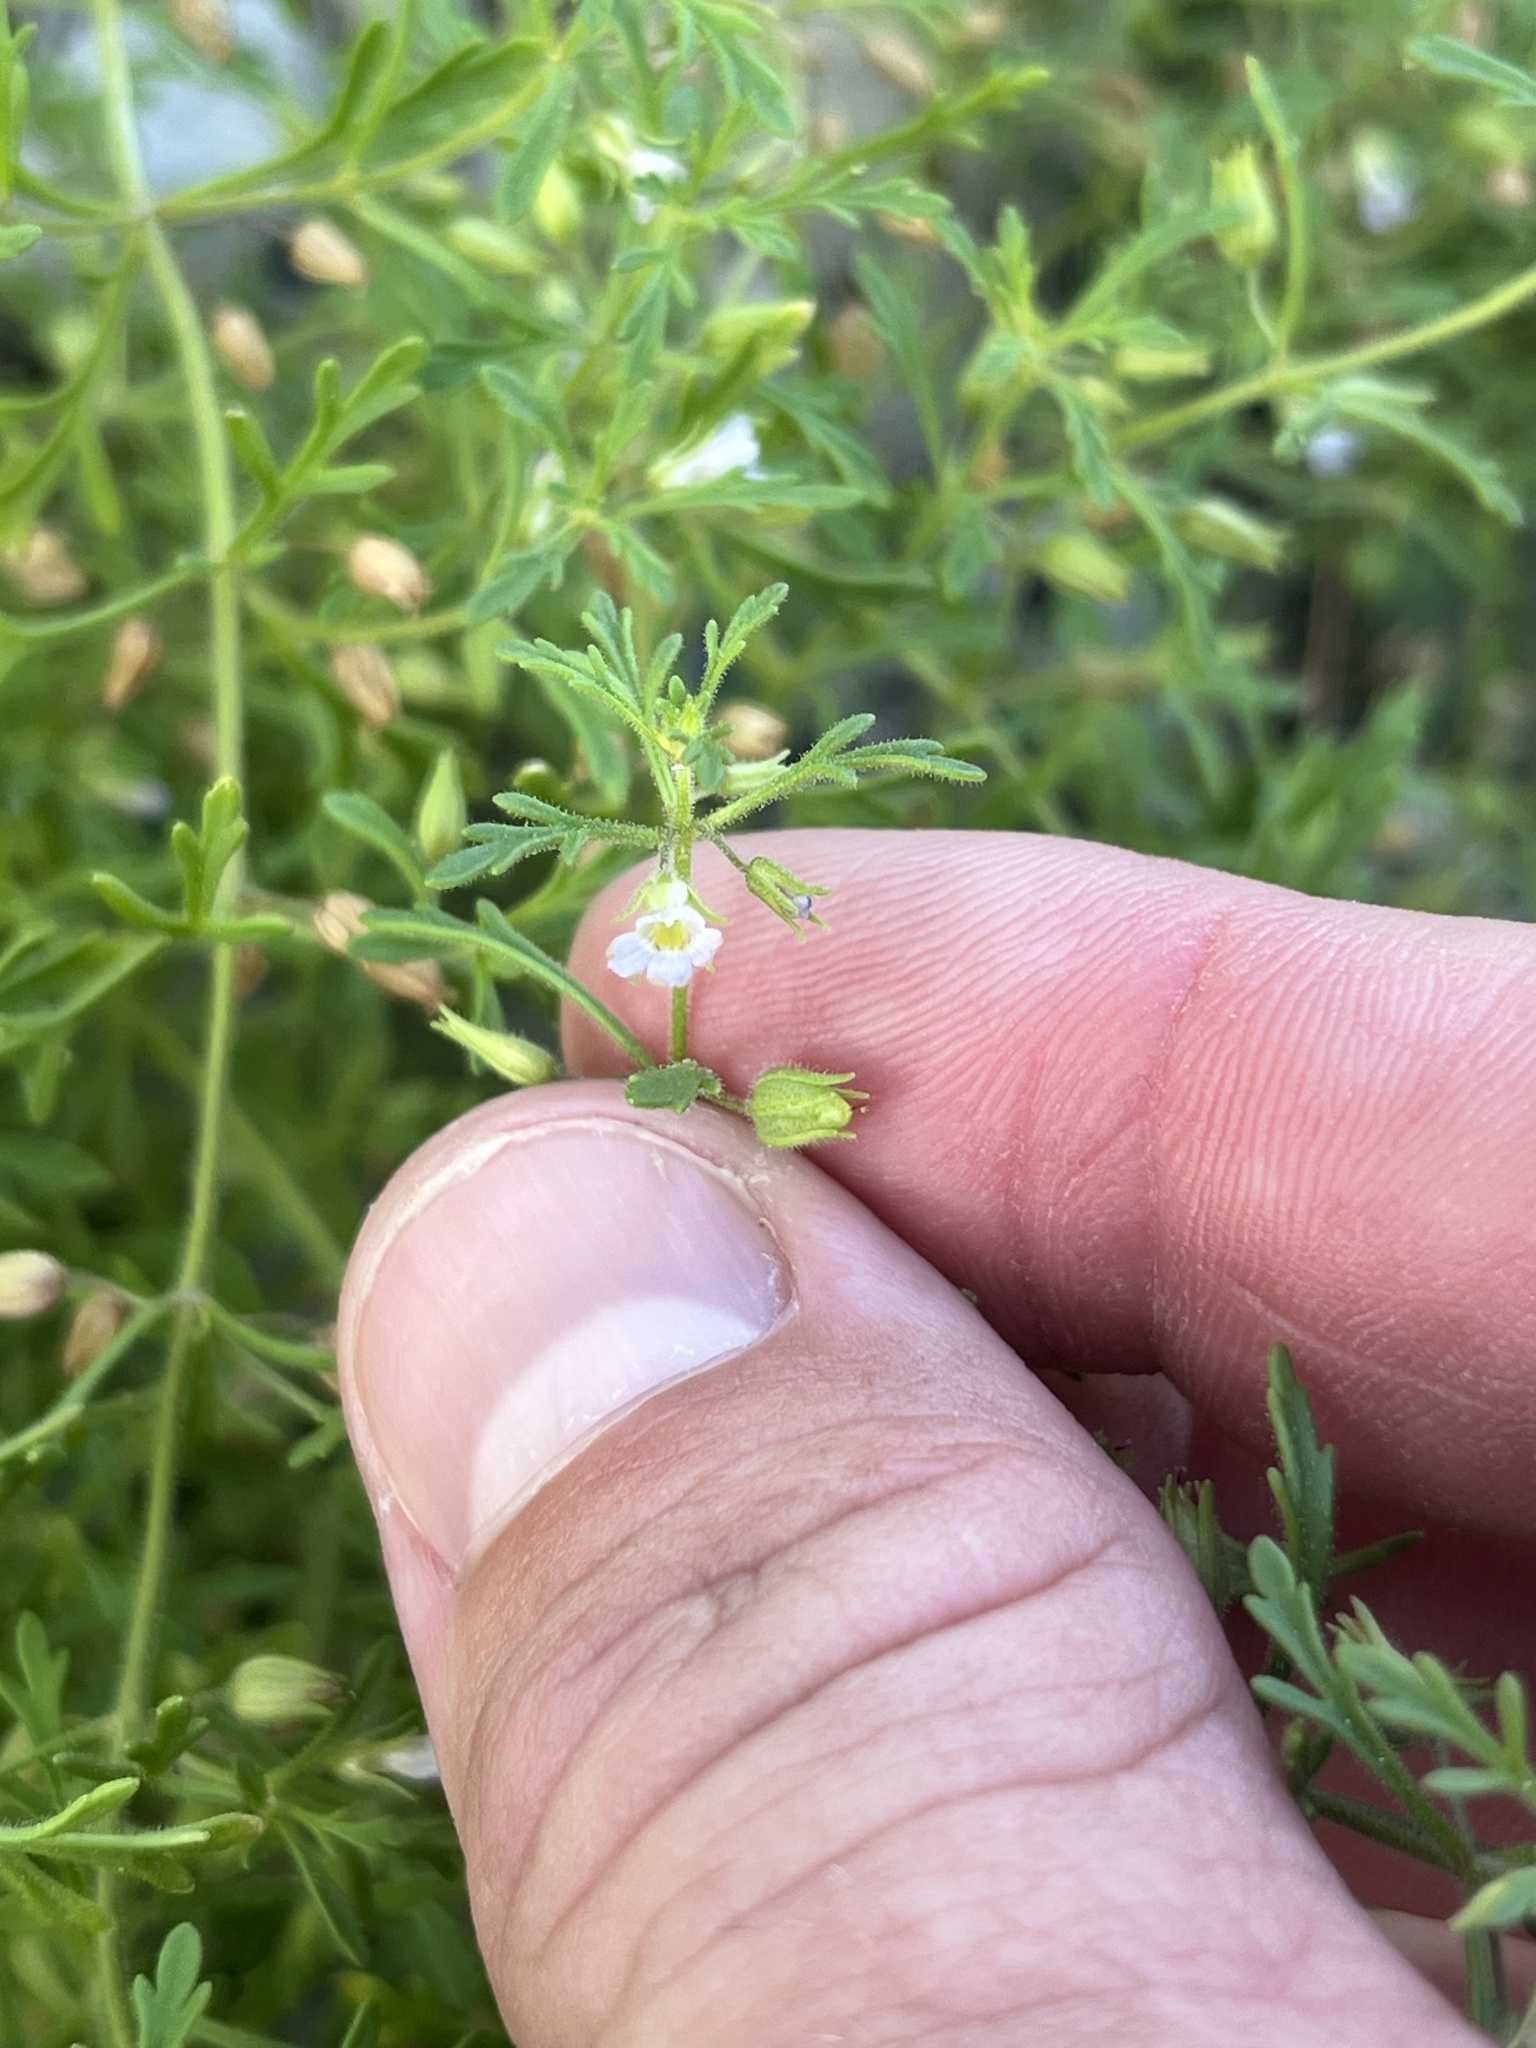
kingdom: Plantae
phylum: Tracheophyta
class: Magnoliopsida
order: Lamiales
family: Plantaginaceae
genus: Leucospora
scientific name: Leucospora multifida
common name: Narrow-leaf paleseed
